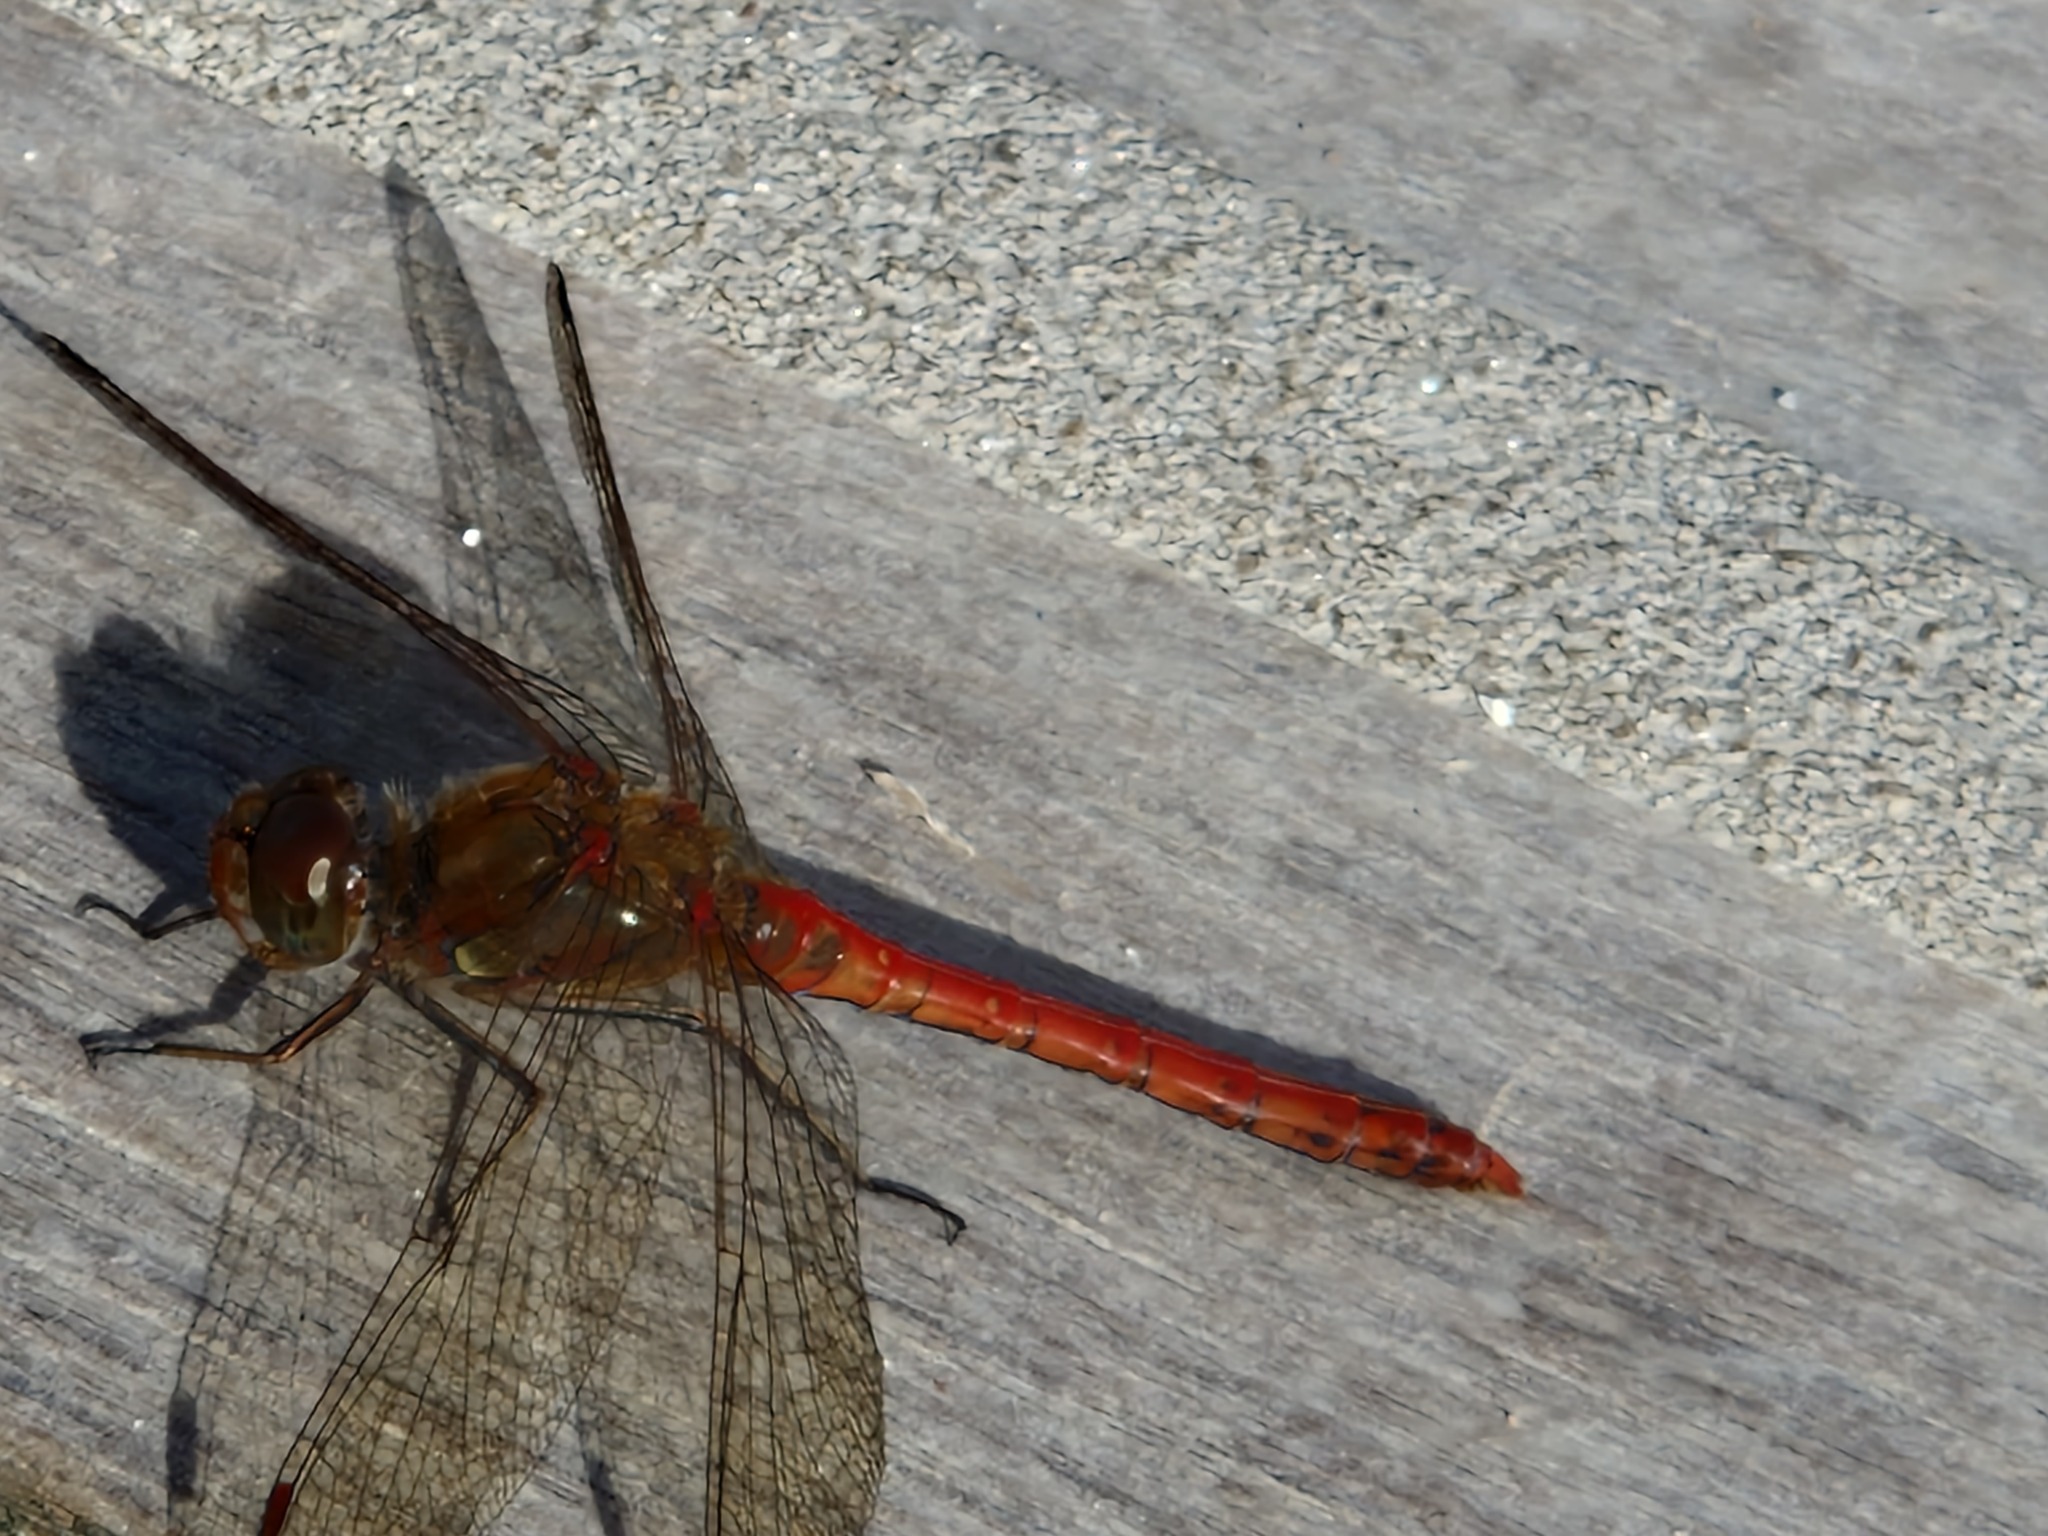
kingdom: Animalia
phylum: Arthropoda
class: Insecta
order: Odonata
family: Libellulidae
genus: Sympetrum
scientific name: Sympetrum striolatum
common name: Common darter
